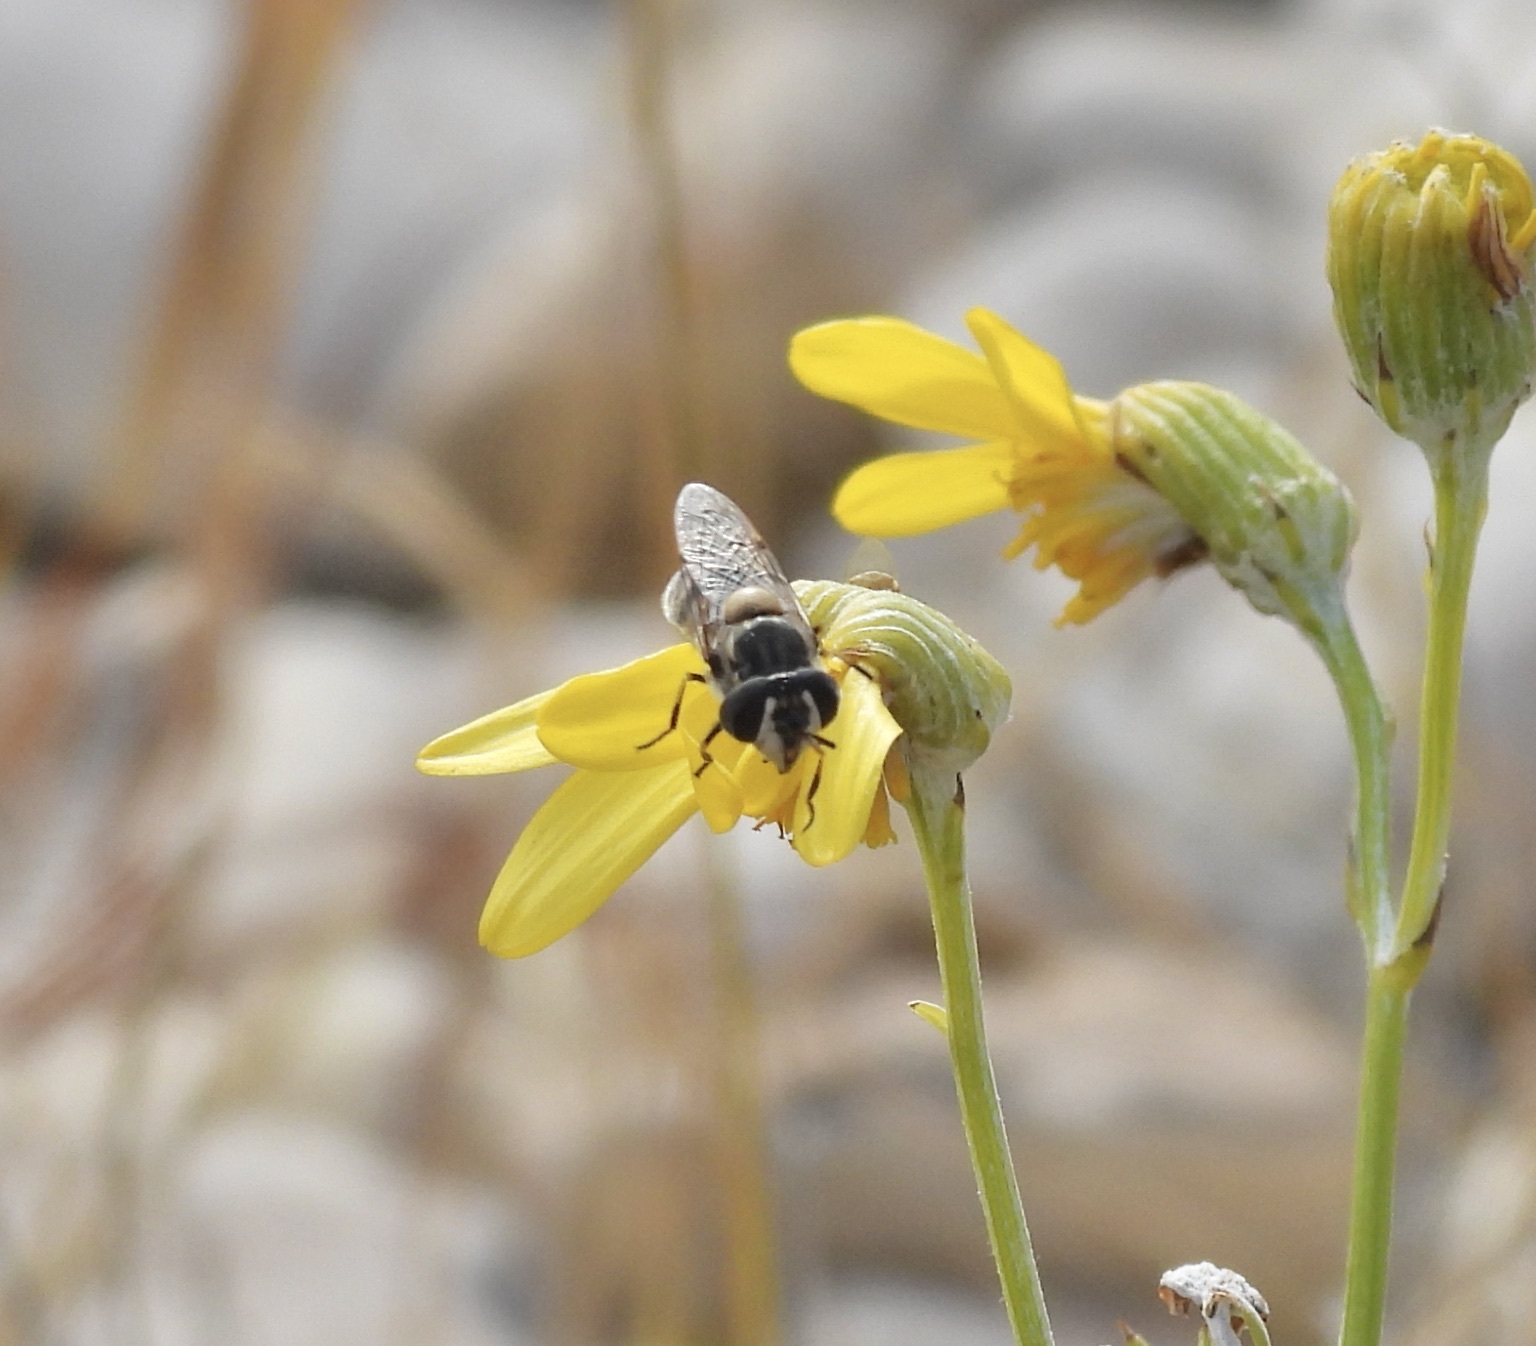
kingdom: Animalia
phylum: Arthropoda
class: Insecta
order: Diptera
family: Syrphidae
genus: Copestylum
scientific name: Copestylum marginatum
